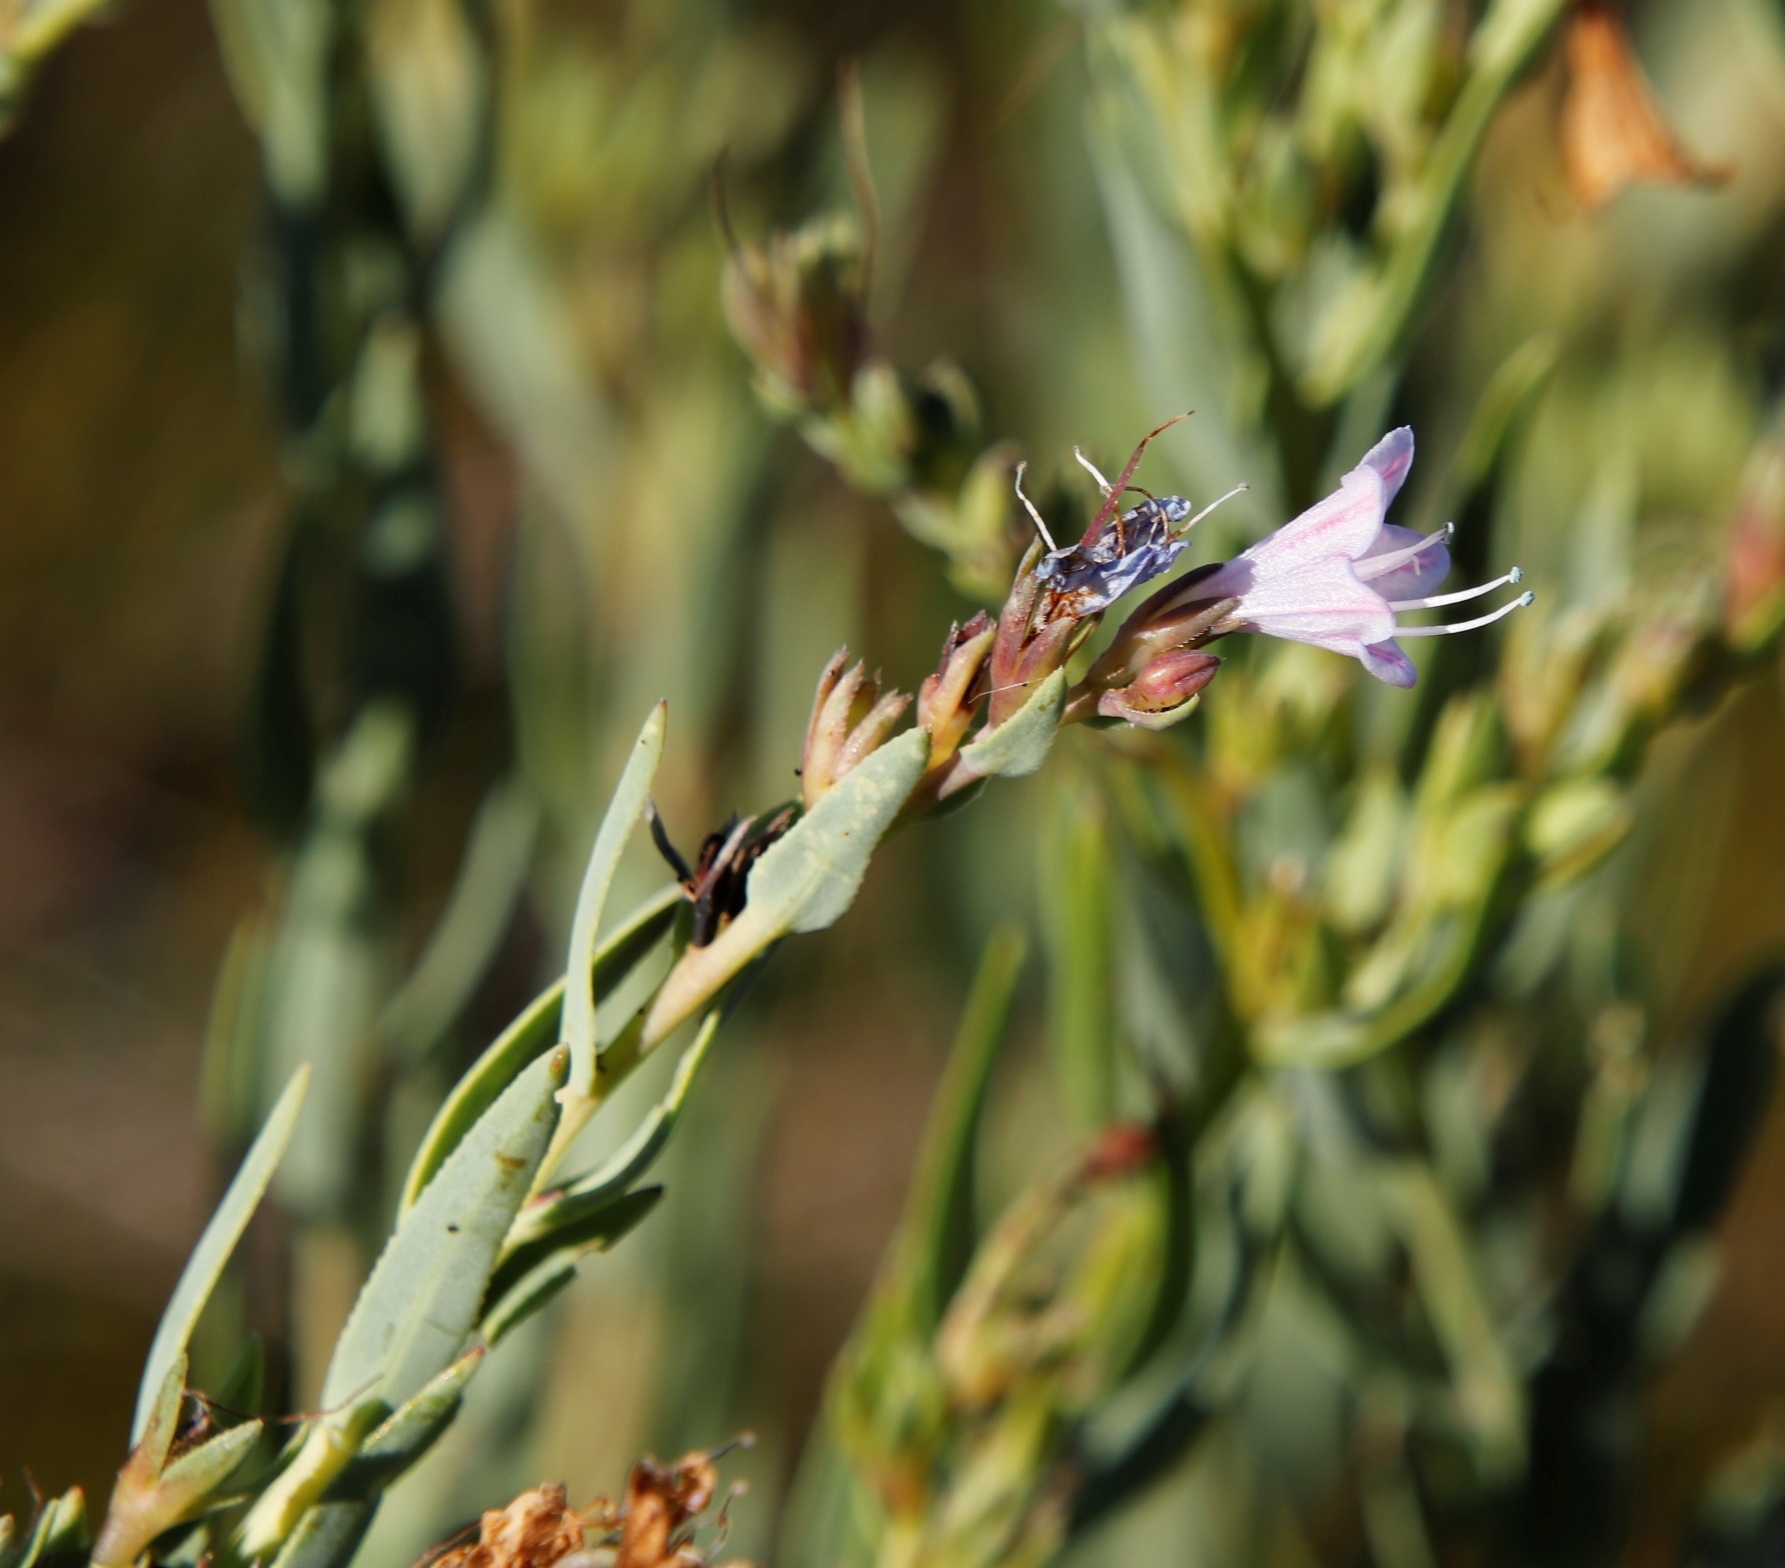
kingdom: Plantae
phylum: Tracheophyta
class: Magnoliopsida
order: Boraginales
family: Boraginaceae
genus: Lobostemon
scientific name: Lobostemon glaucophyllus
